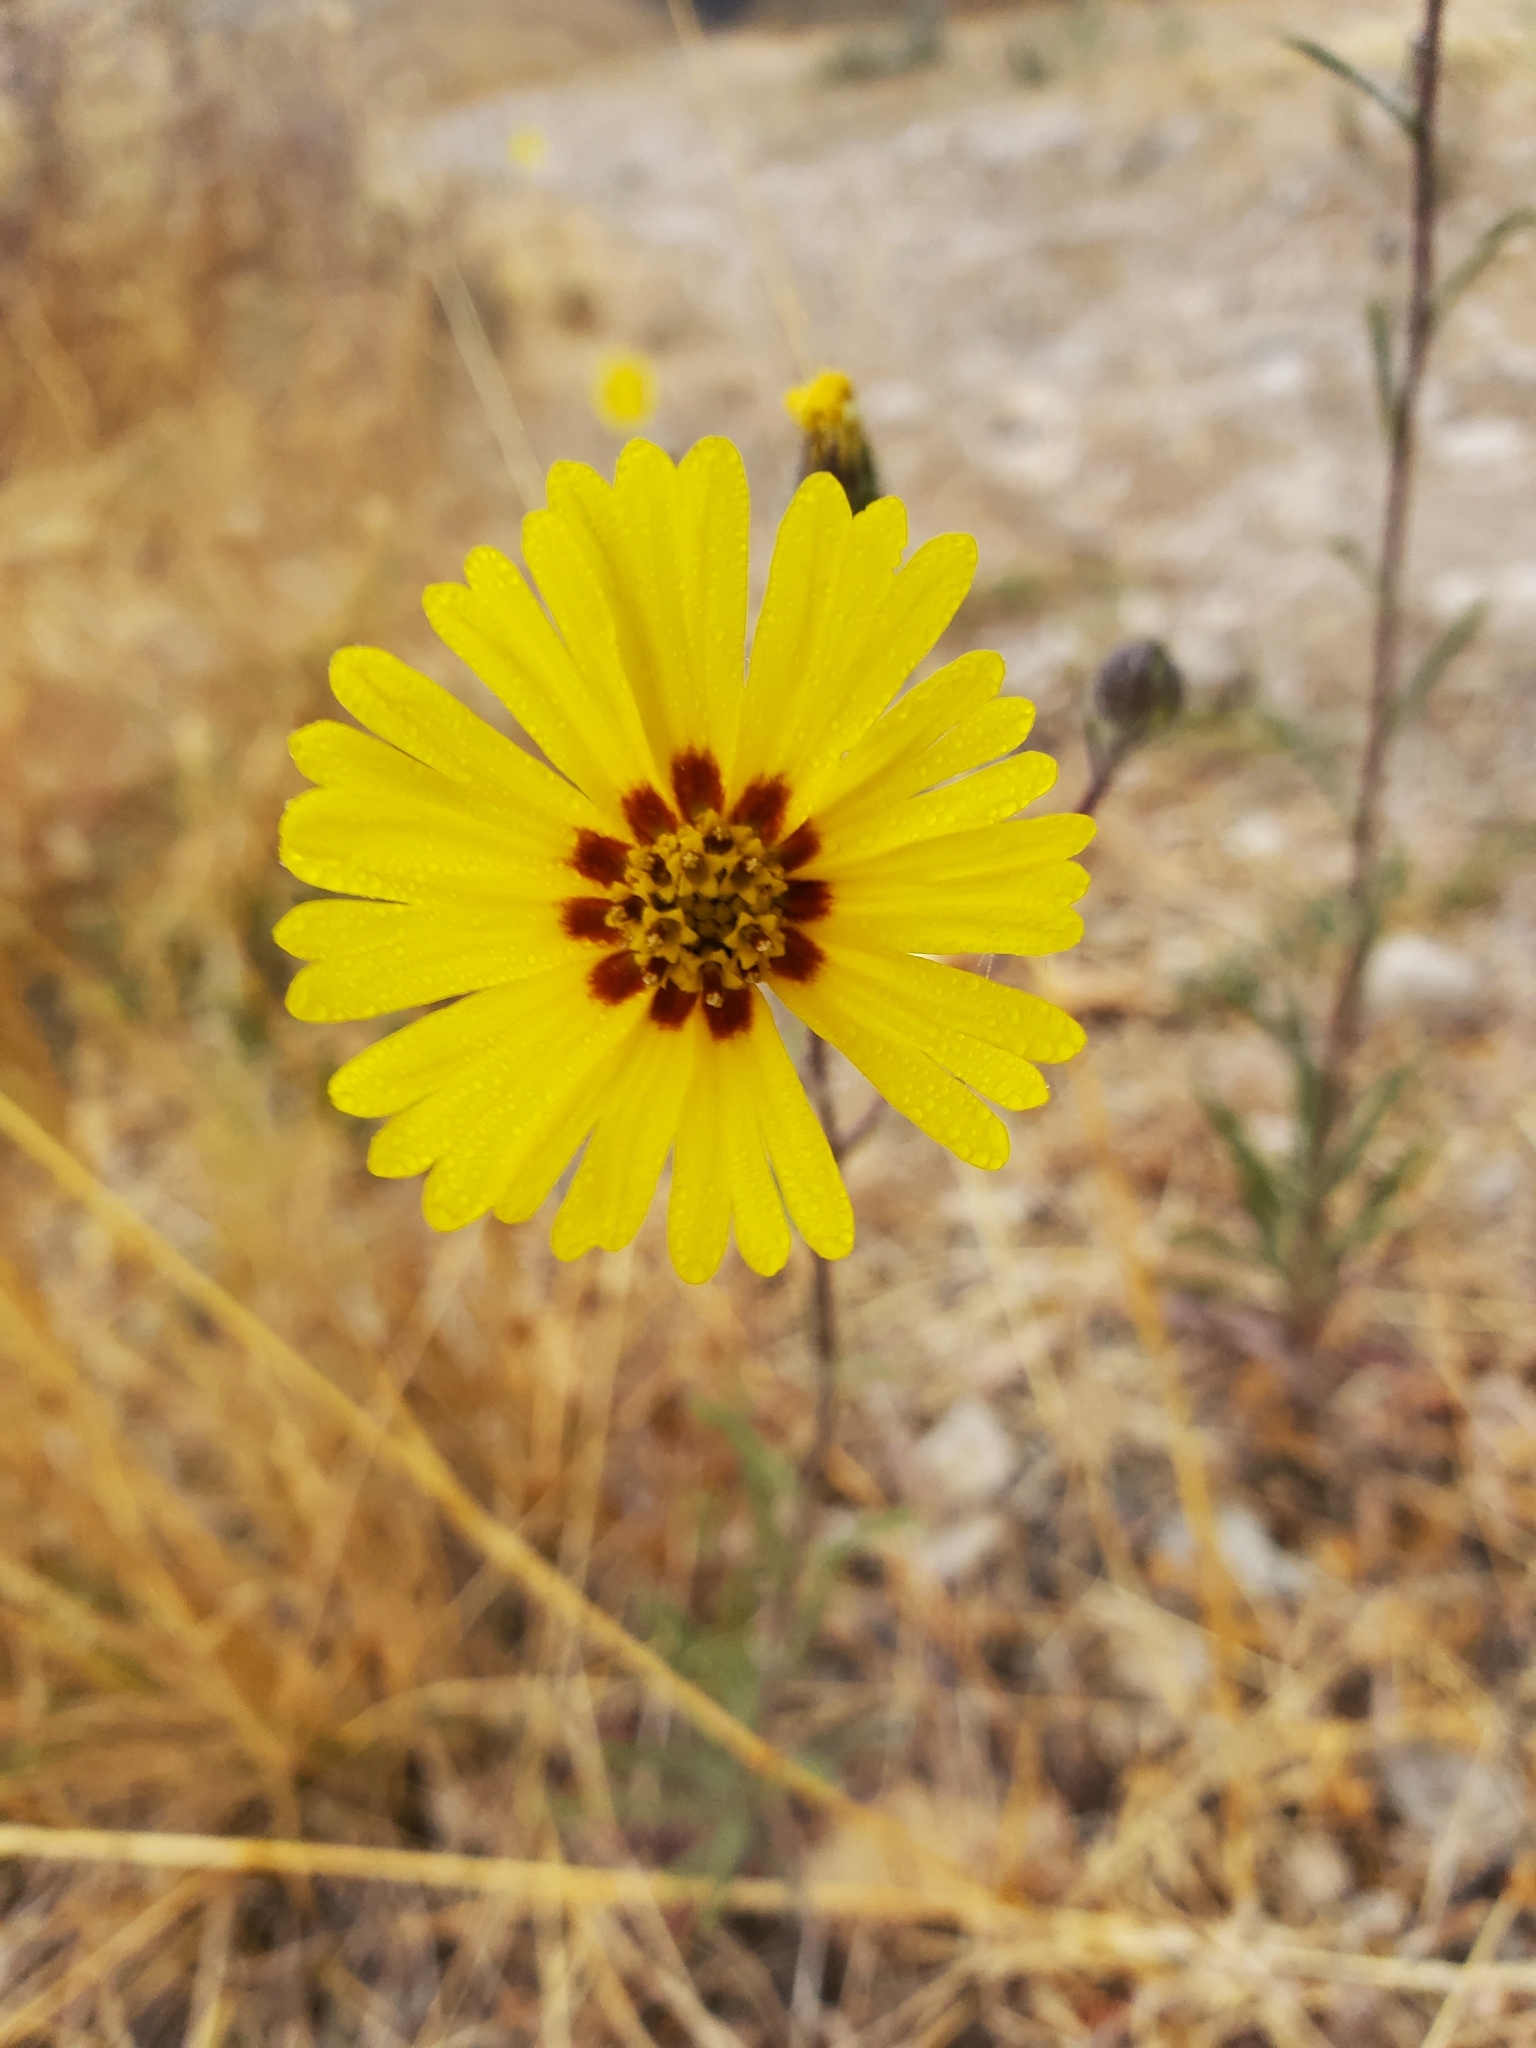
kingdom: Plantae
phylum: Tracheophyta
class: Magnoliopsida
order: Asterales
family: Asteraceae
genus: Madia
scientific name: Madia elegans
